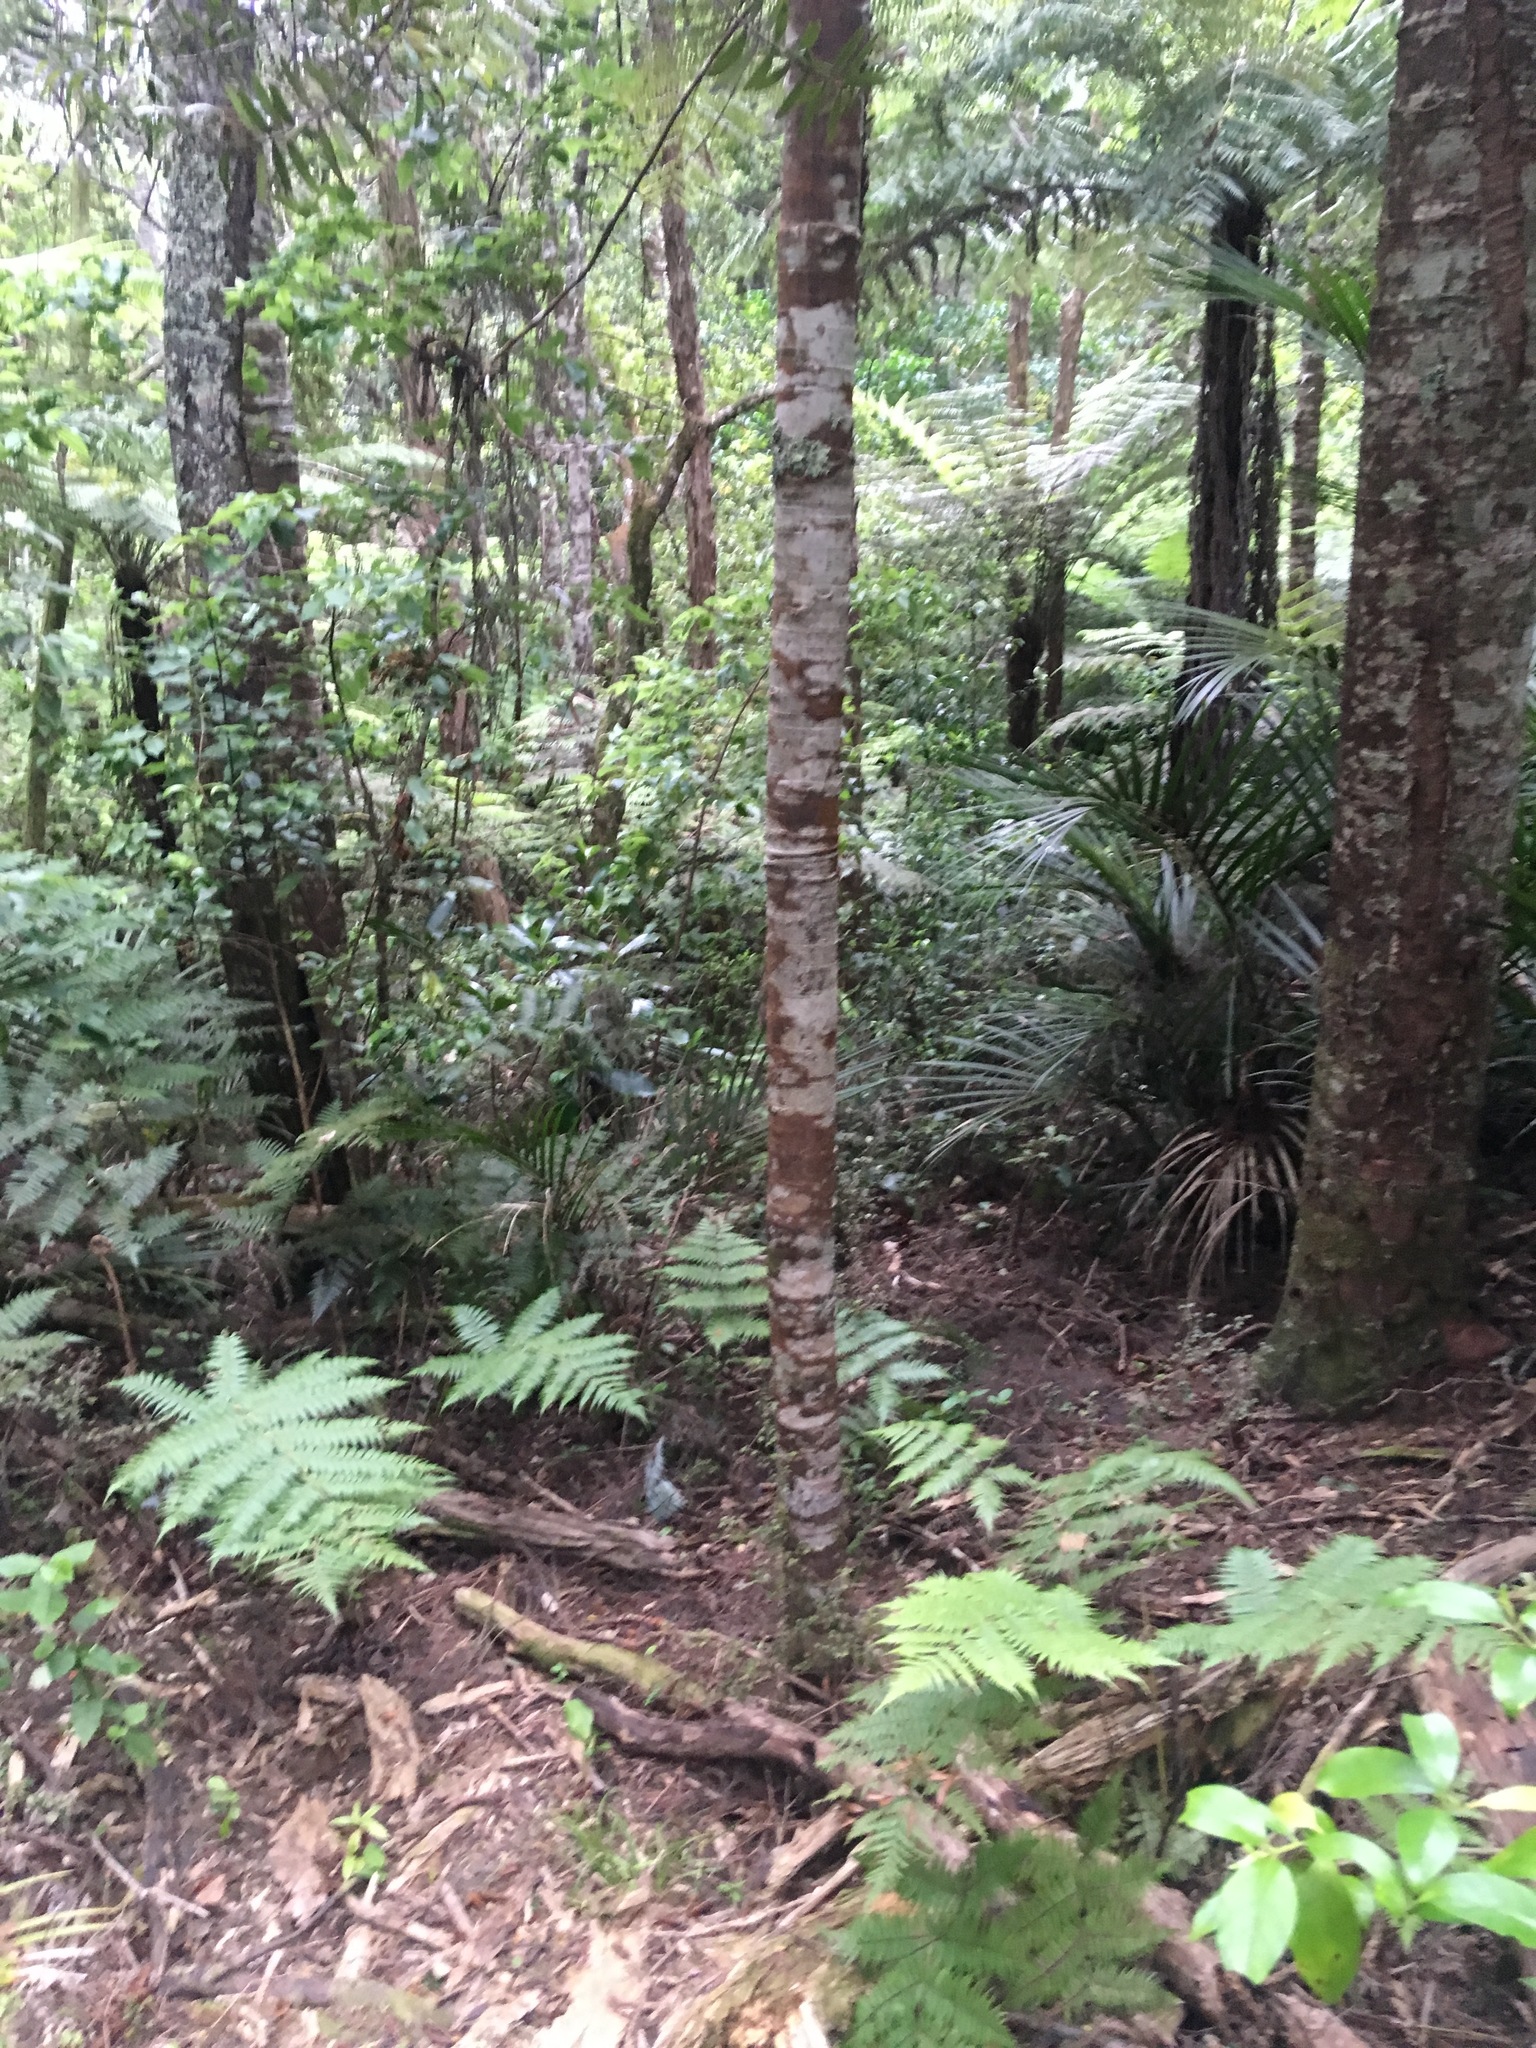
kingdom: Plantae
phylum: Tracheophyta
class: Pinopsida
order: Pinales
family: Araucariaceae
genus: Agathis
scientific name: Agathis australis
